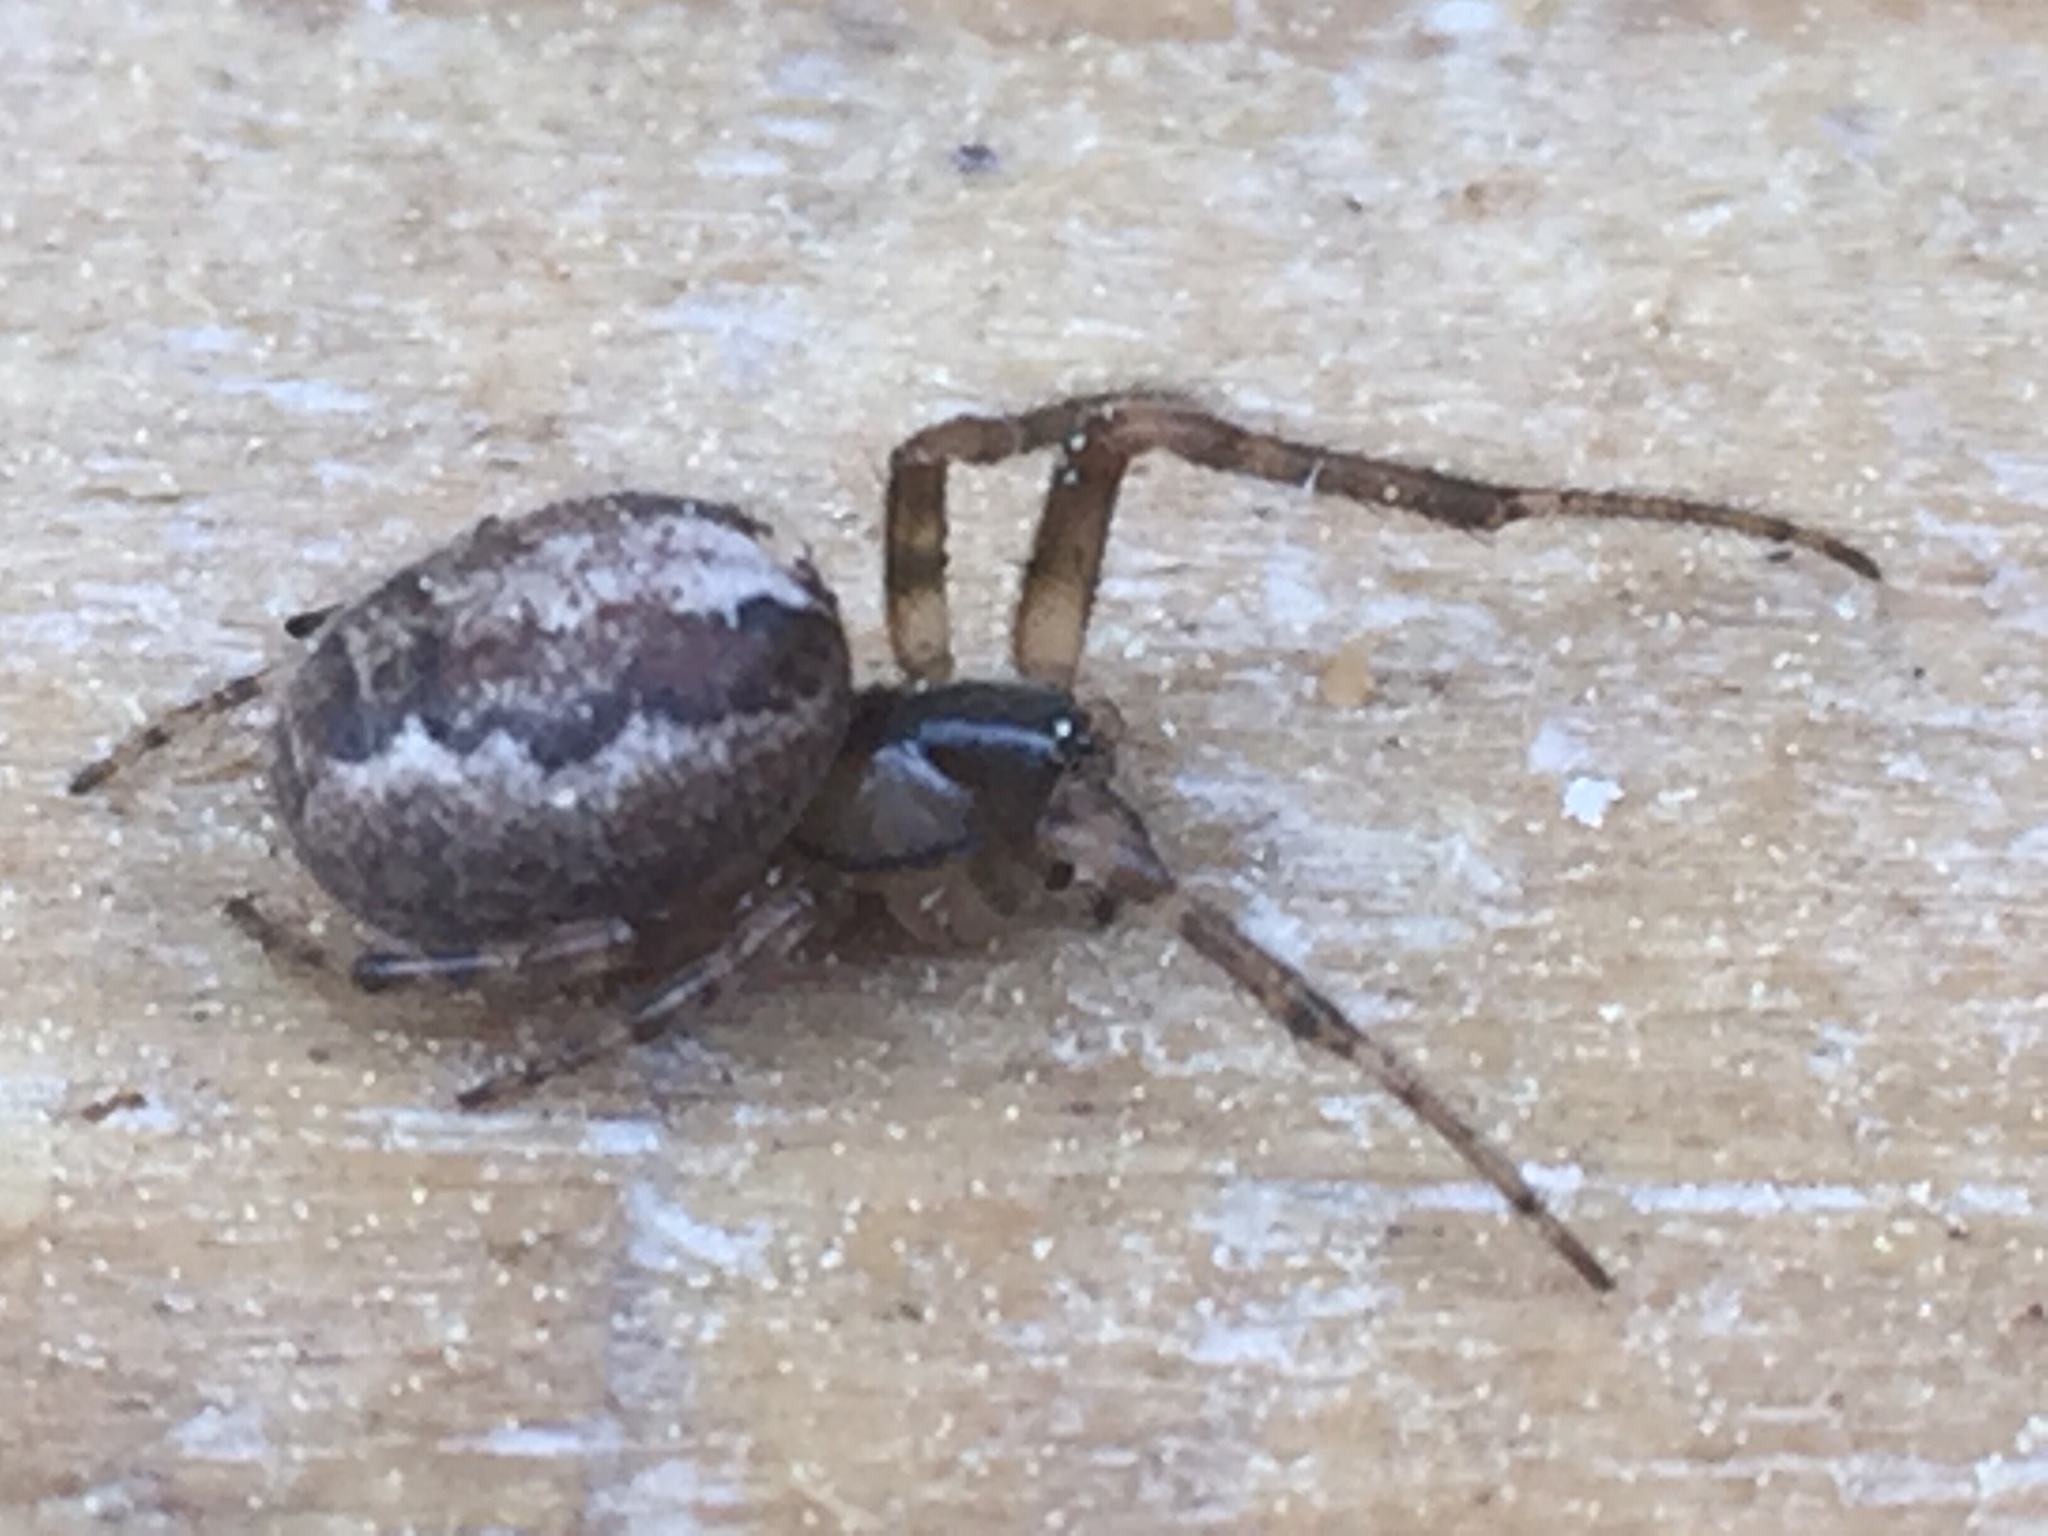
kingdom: Animalia
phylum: Arthropoda
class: Arachnida
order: Araneae
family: Araneidae
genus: Zygiella
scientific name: Zygiella x-notata
